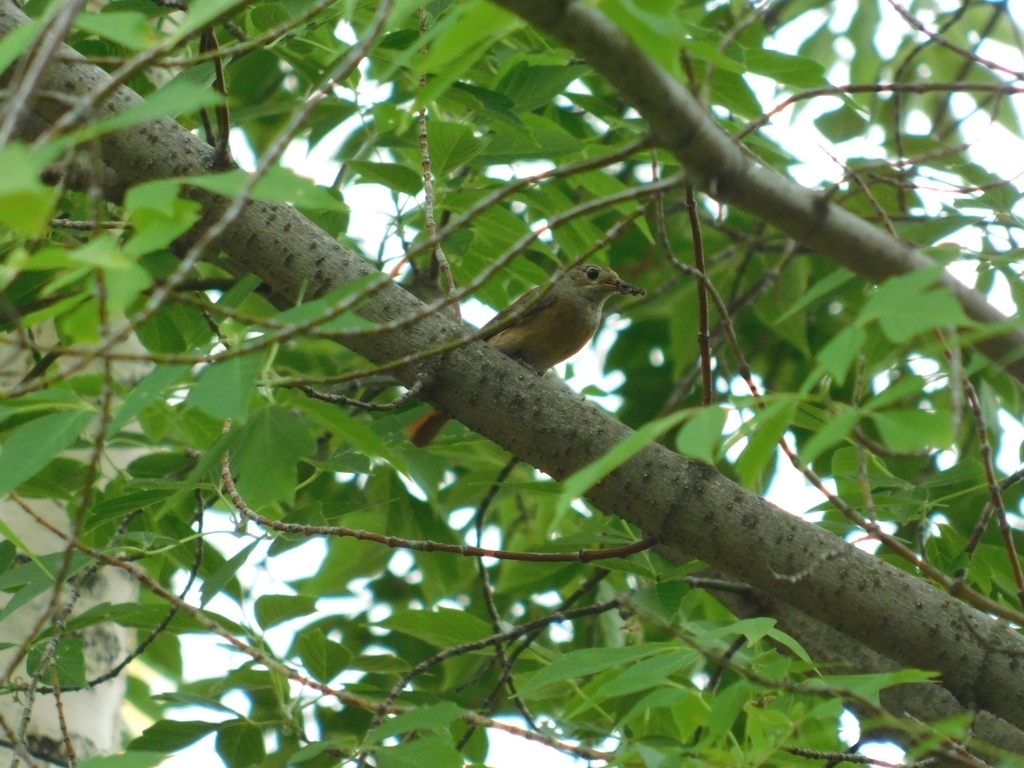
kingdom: Animalia
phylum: Chordata
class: Aves
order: Passeriformes
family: Muscicapidae
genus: Phoenicurus
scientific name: Phoenicurus phoenicurus
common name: Common redstart
